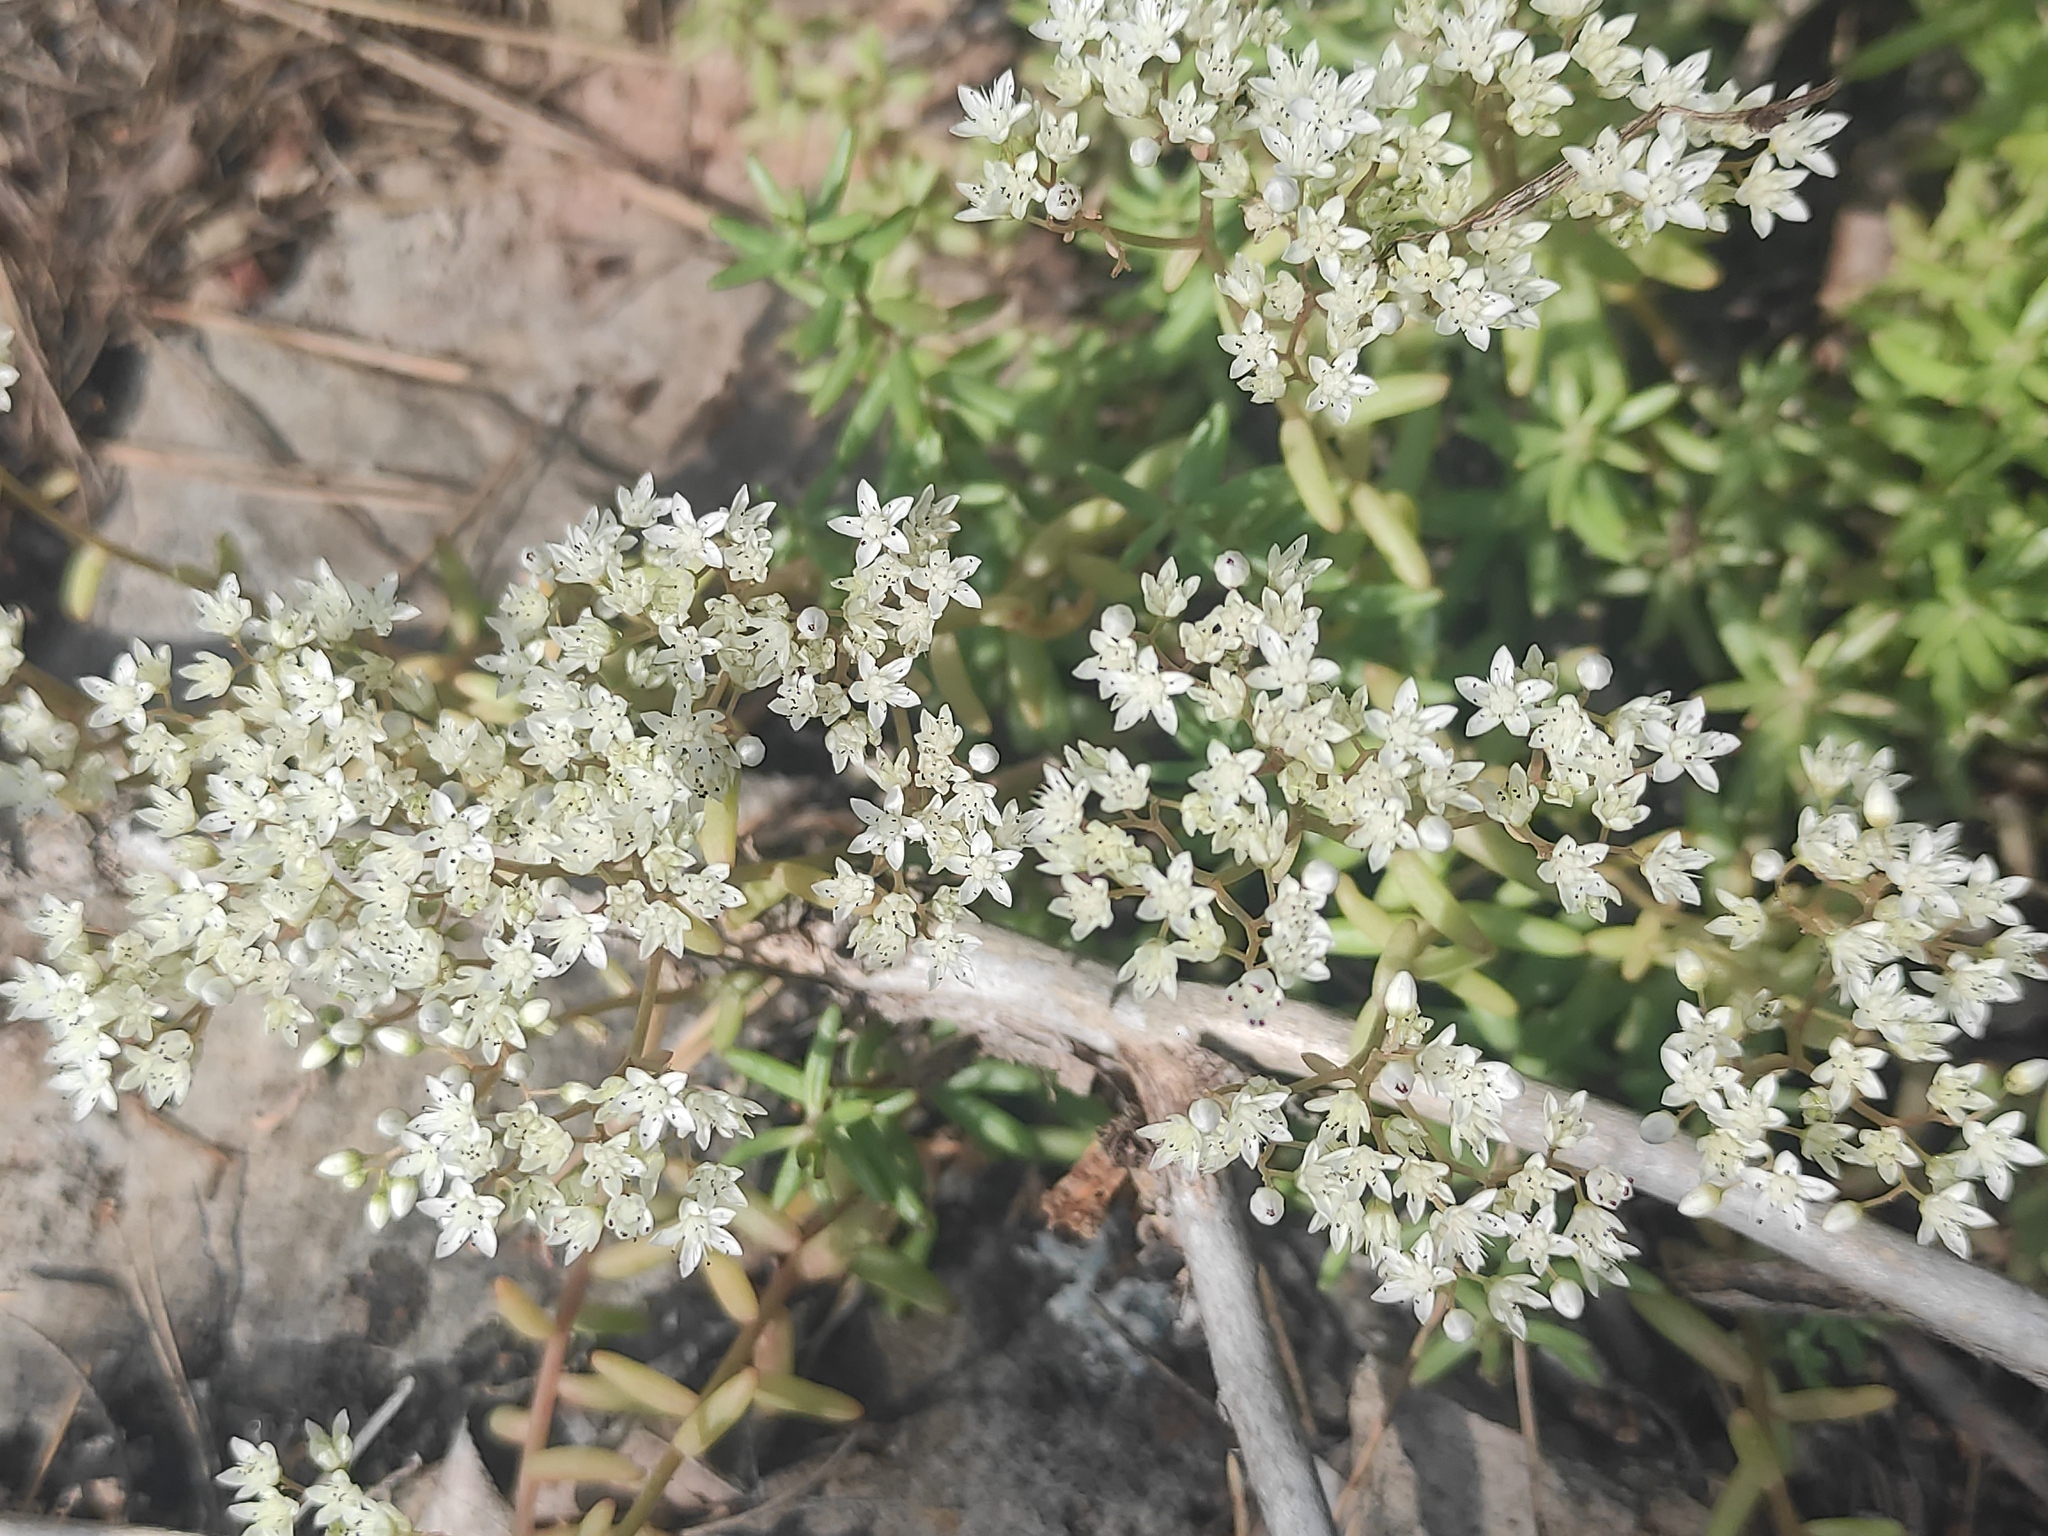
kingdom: Plantae
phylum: Tracheophyta
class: Magnoliopsida
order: Saxifragales
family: Crassulaceae
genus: Sedum
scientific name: Sedum album
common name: White stonecrop
